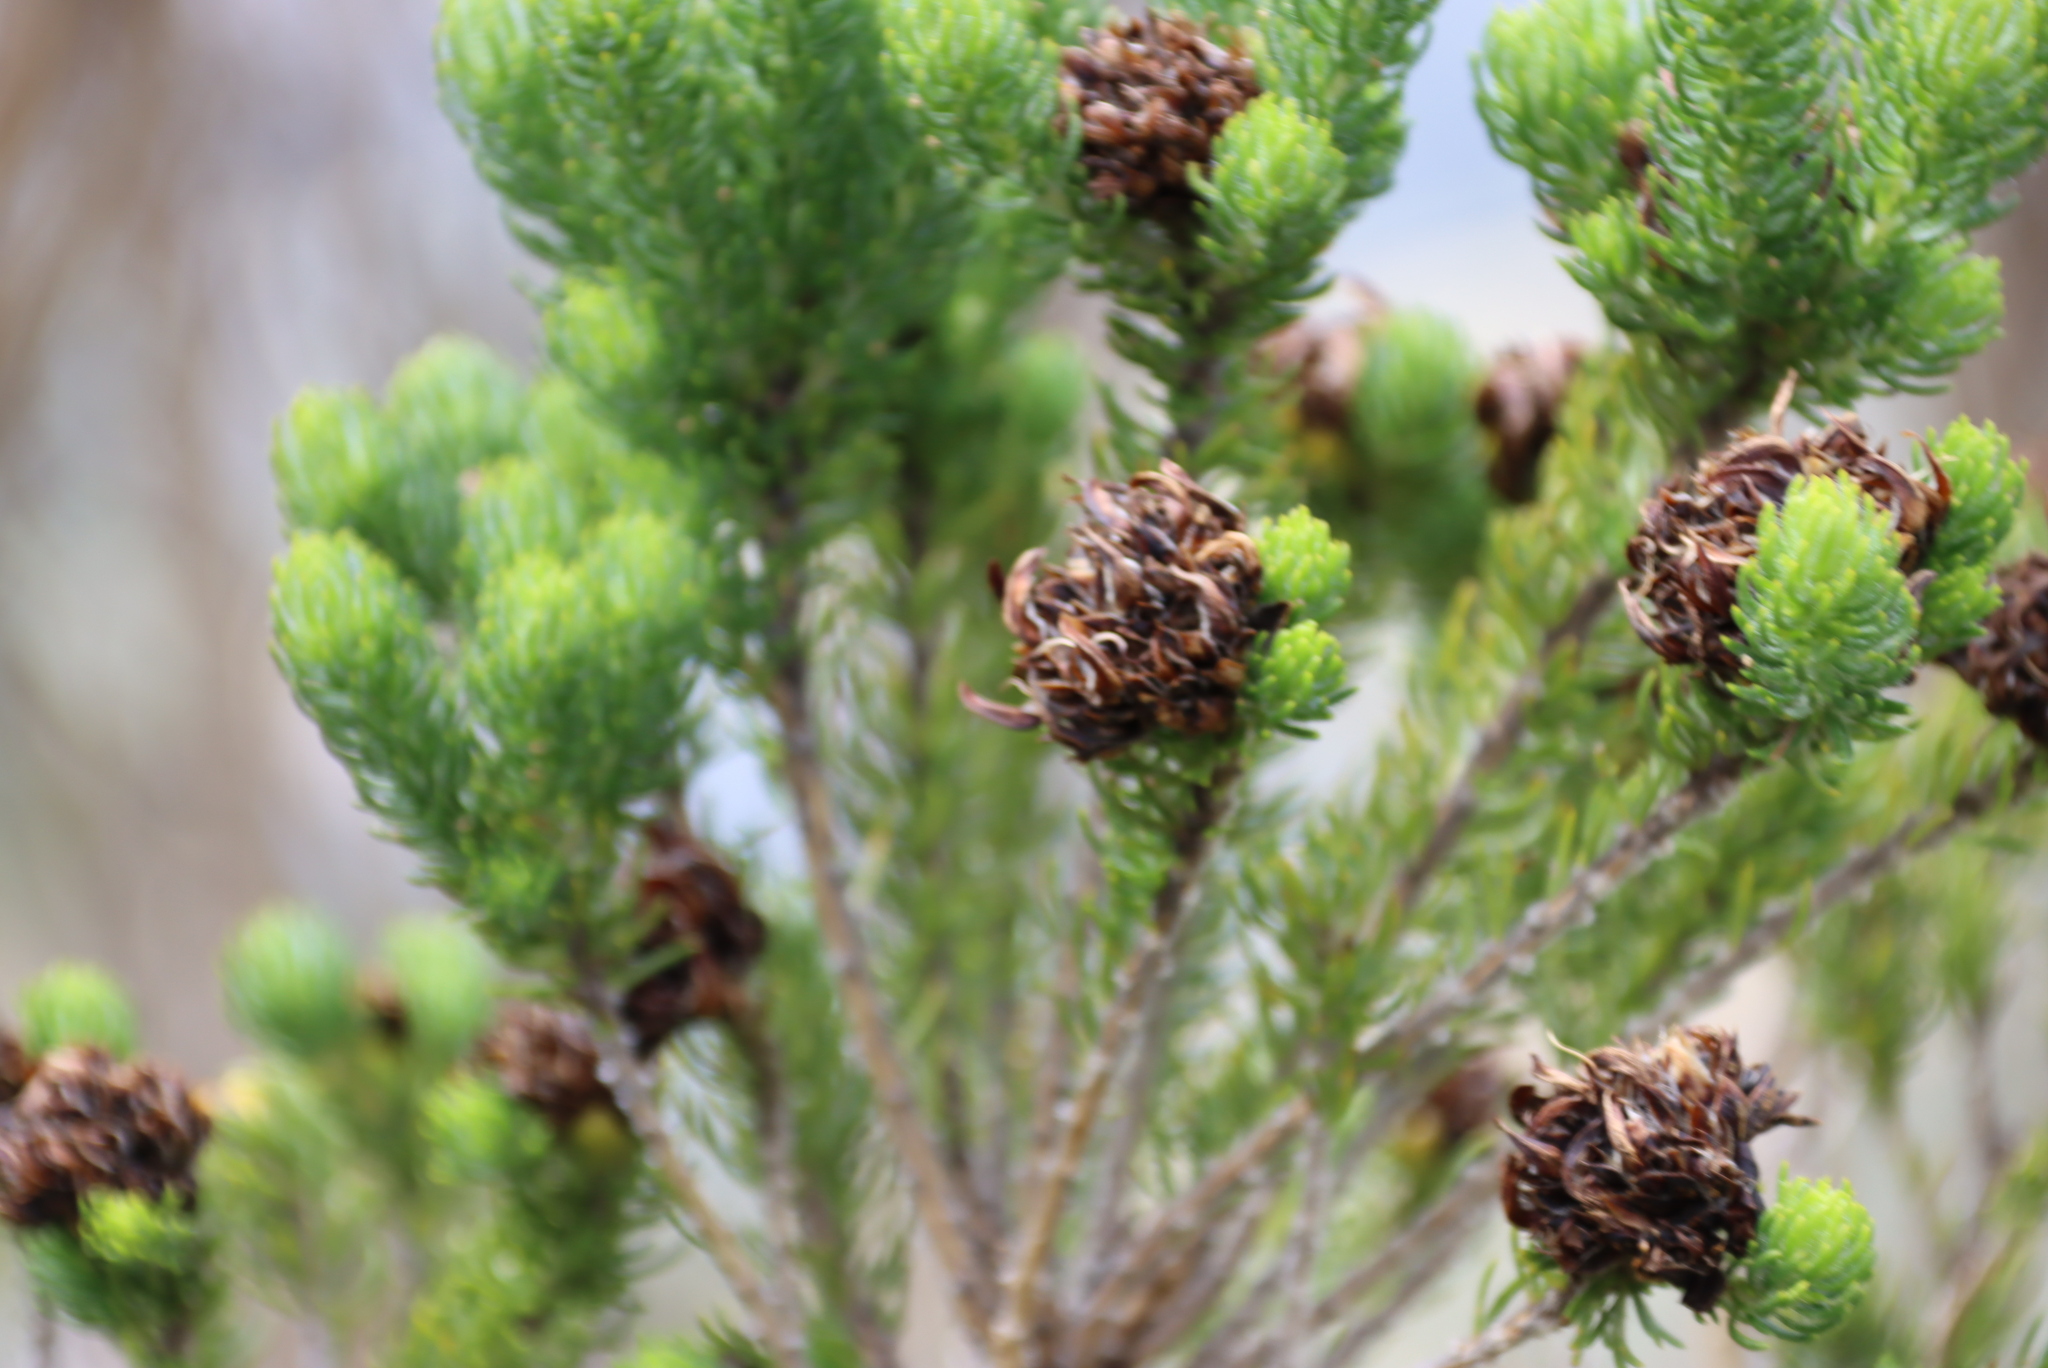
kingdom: Plantae
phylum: Tracheophyta
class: Magnoliopsida
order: Fabales
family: Fabaceae
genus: Aspalathus
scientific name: Aspalathus capitata
